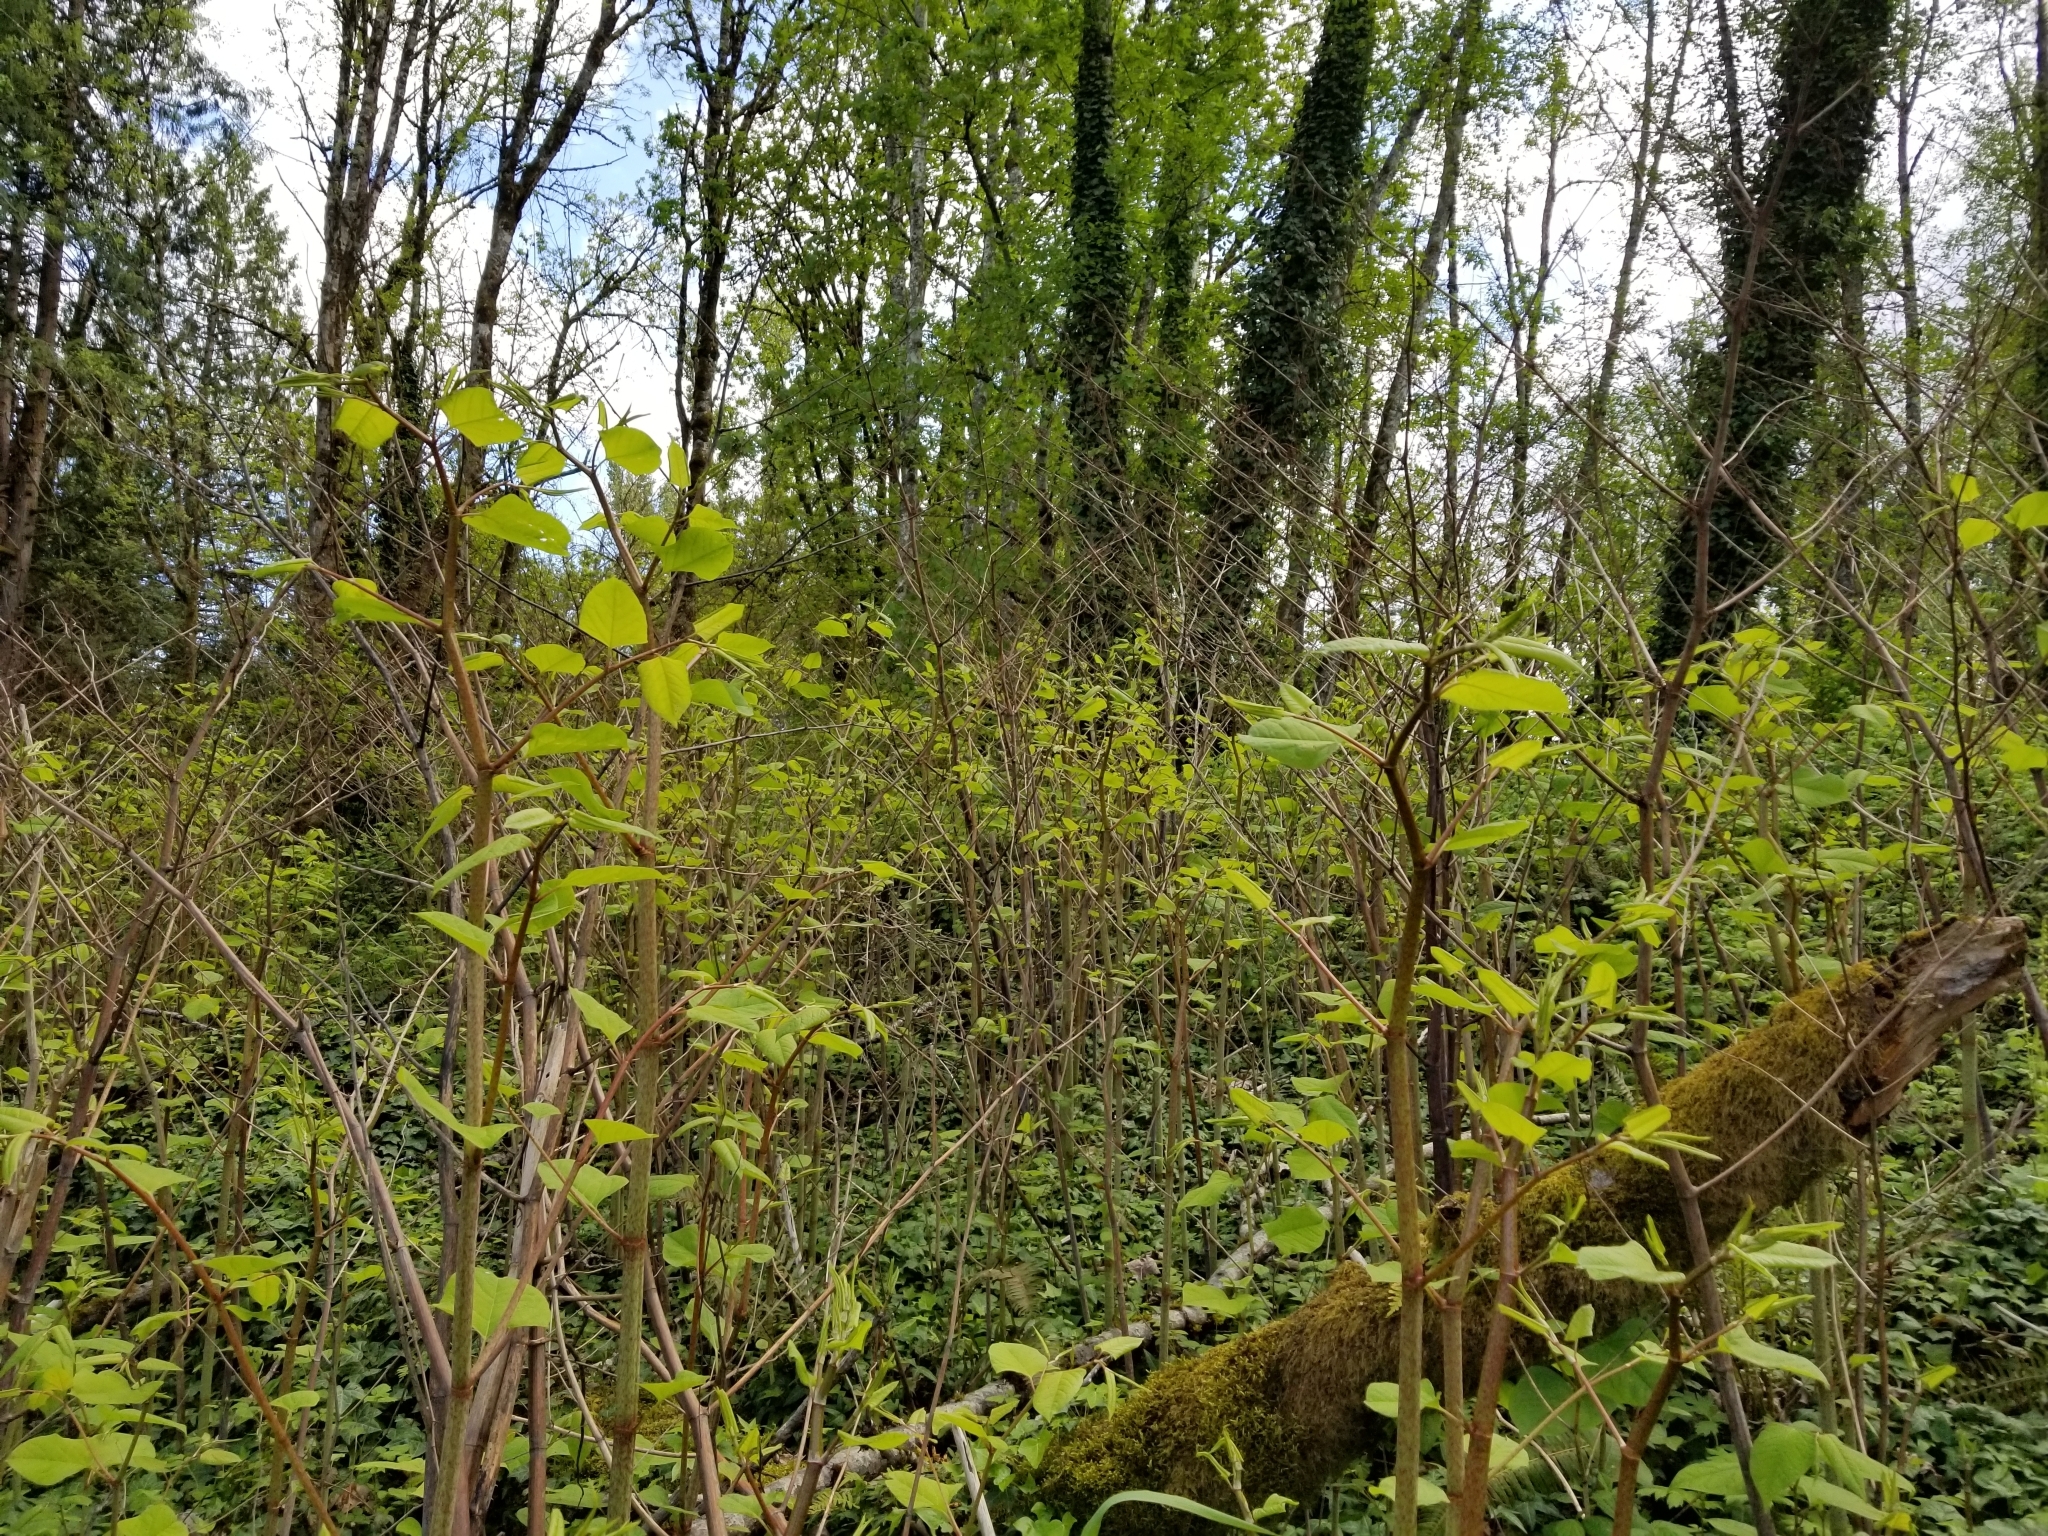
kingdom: Plantae
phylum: Tracheophyta
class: Magnoliopsida
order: Caryophyllales
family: Polygonaceae
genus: Reynoutria
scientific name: Reynoutria bohemica
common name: Bohemian knotweed
